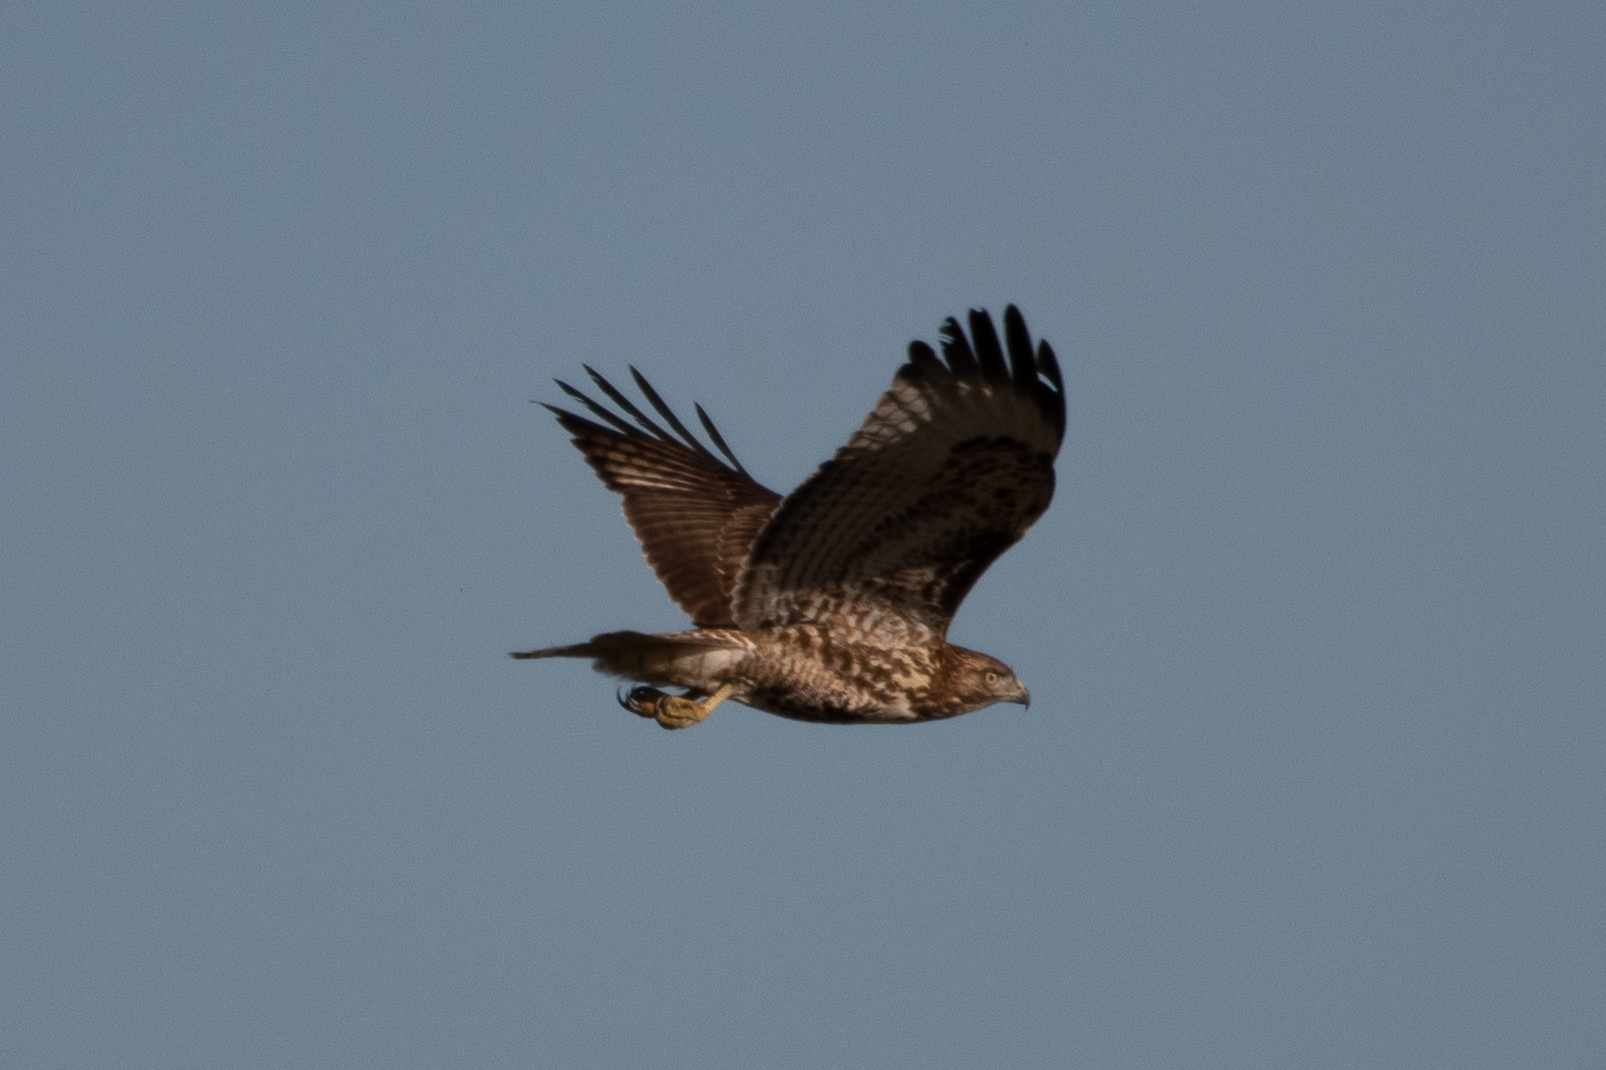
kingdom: Animalia
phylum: Chordata
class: Aves
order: Accipitriformes
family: Accipitridae
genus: Buteo
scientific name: Buteo jamaicensis
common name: Red-tailed hawk
